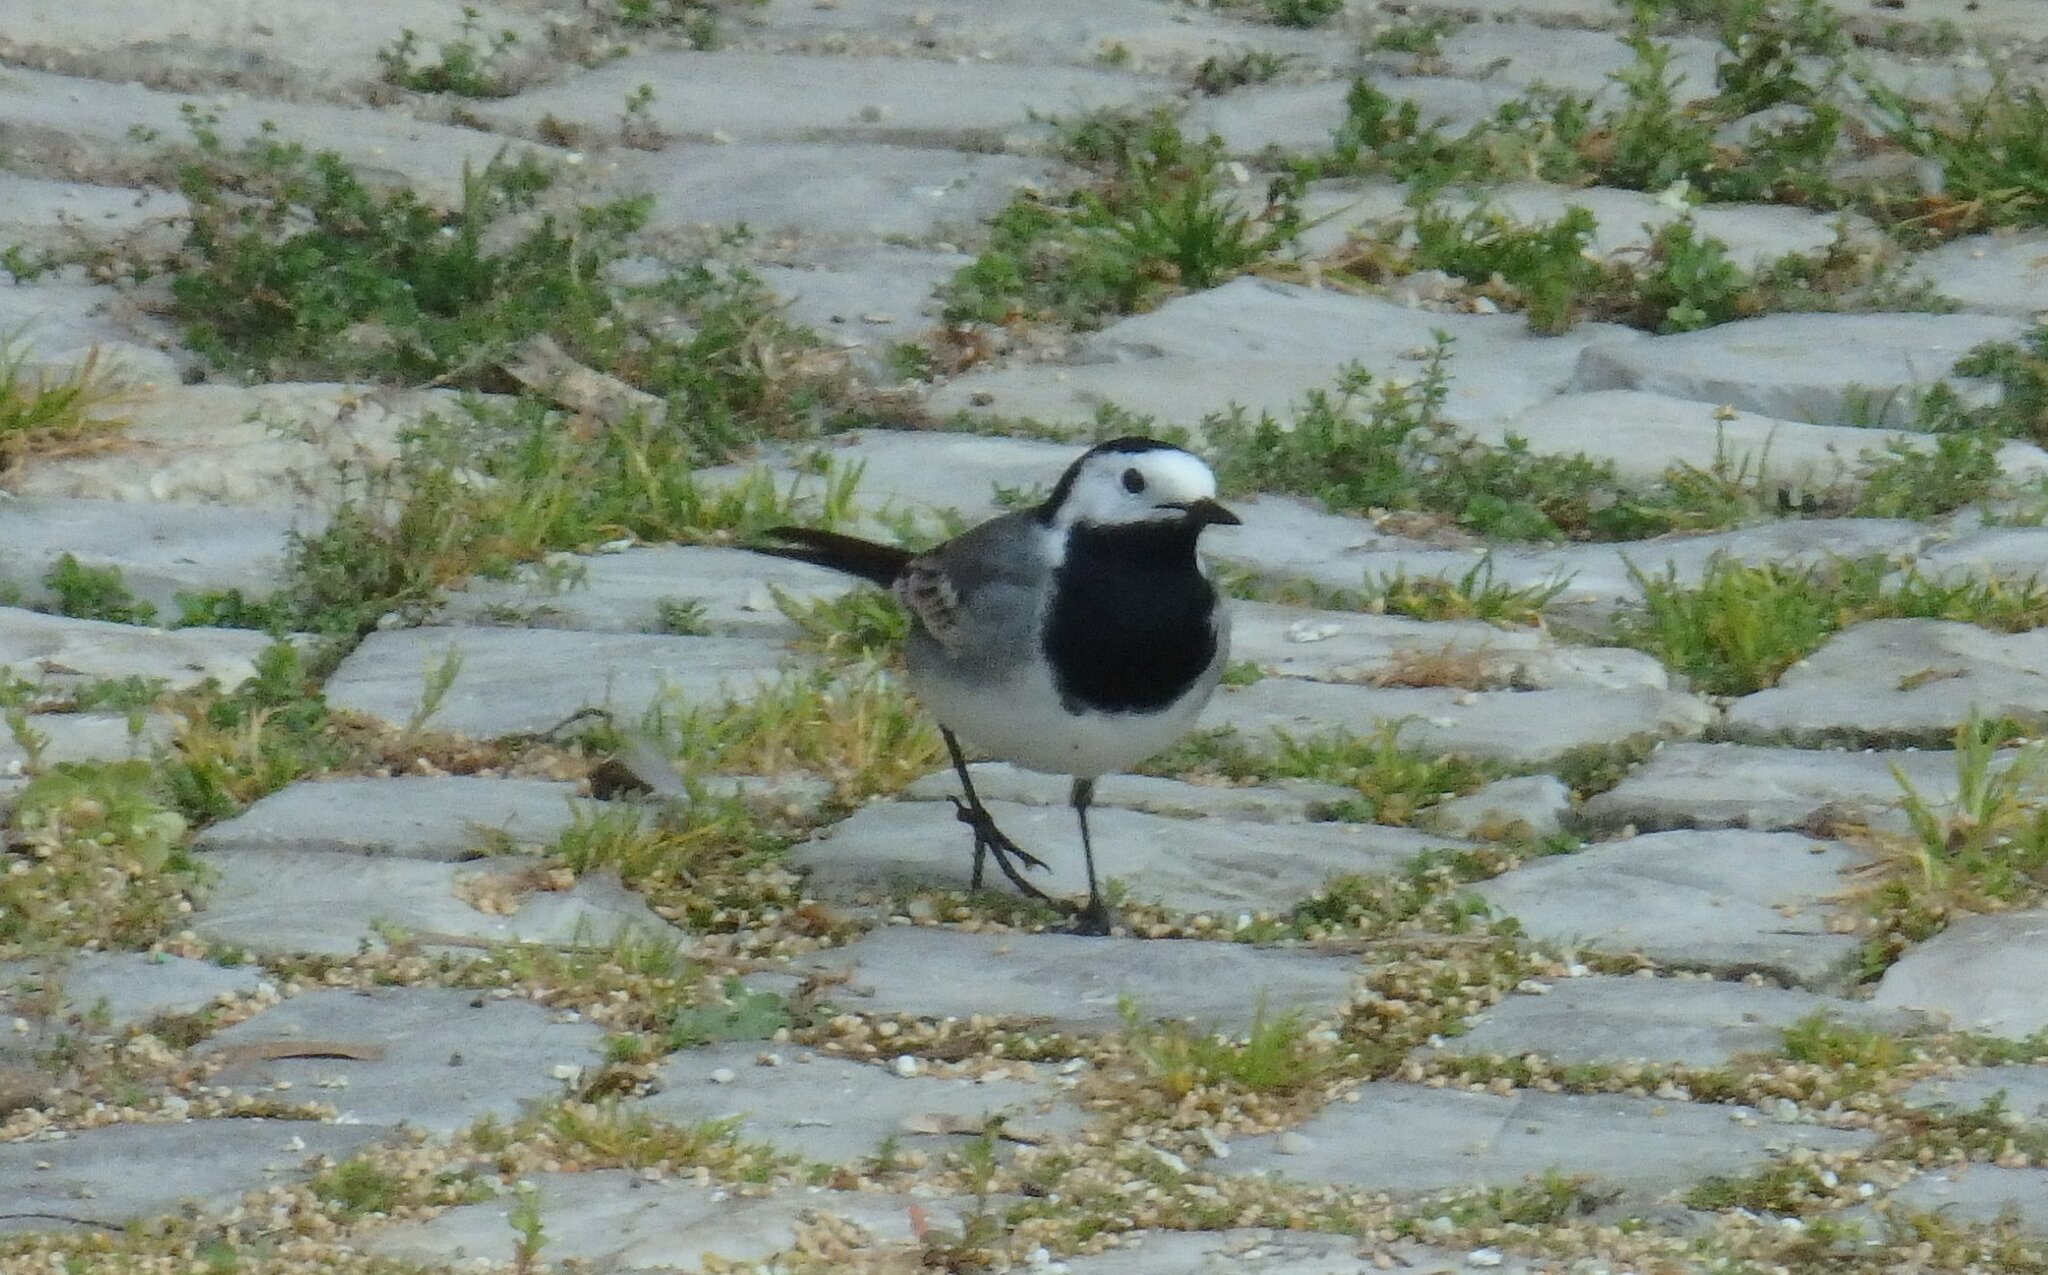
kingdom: Animalia
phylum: Chordata
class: Aves
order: Passeriformes
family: Motacillidae
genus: Motacilla
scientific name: Motacilla alba
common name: White wagtail
